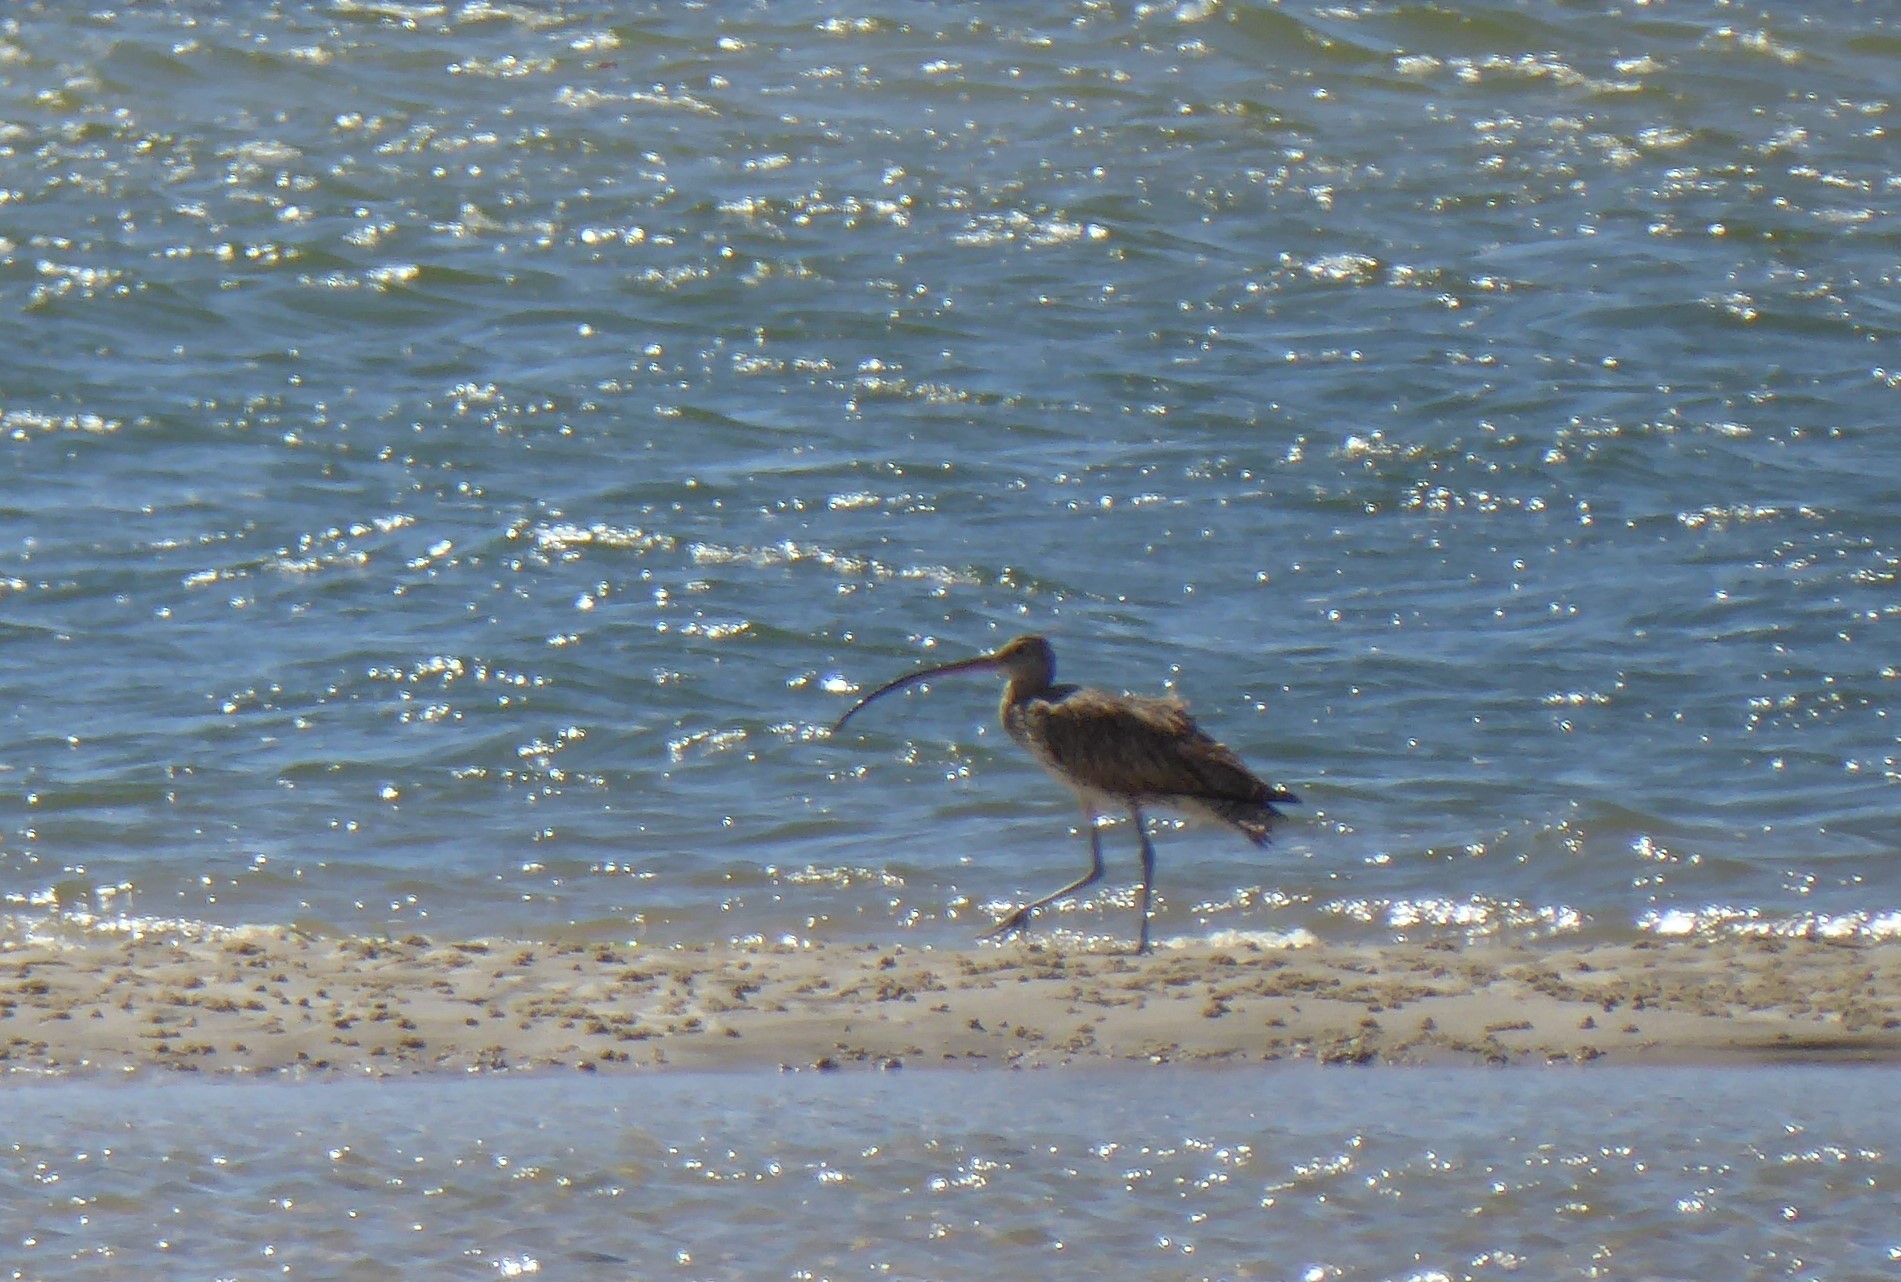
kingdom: Animalia
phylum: Chordata
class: Aves
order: Charadriiformes
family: Scolopacidae
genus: Numenius
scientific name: Numenius madagascariensis
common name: Far eastern curlew
